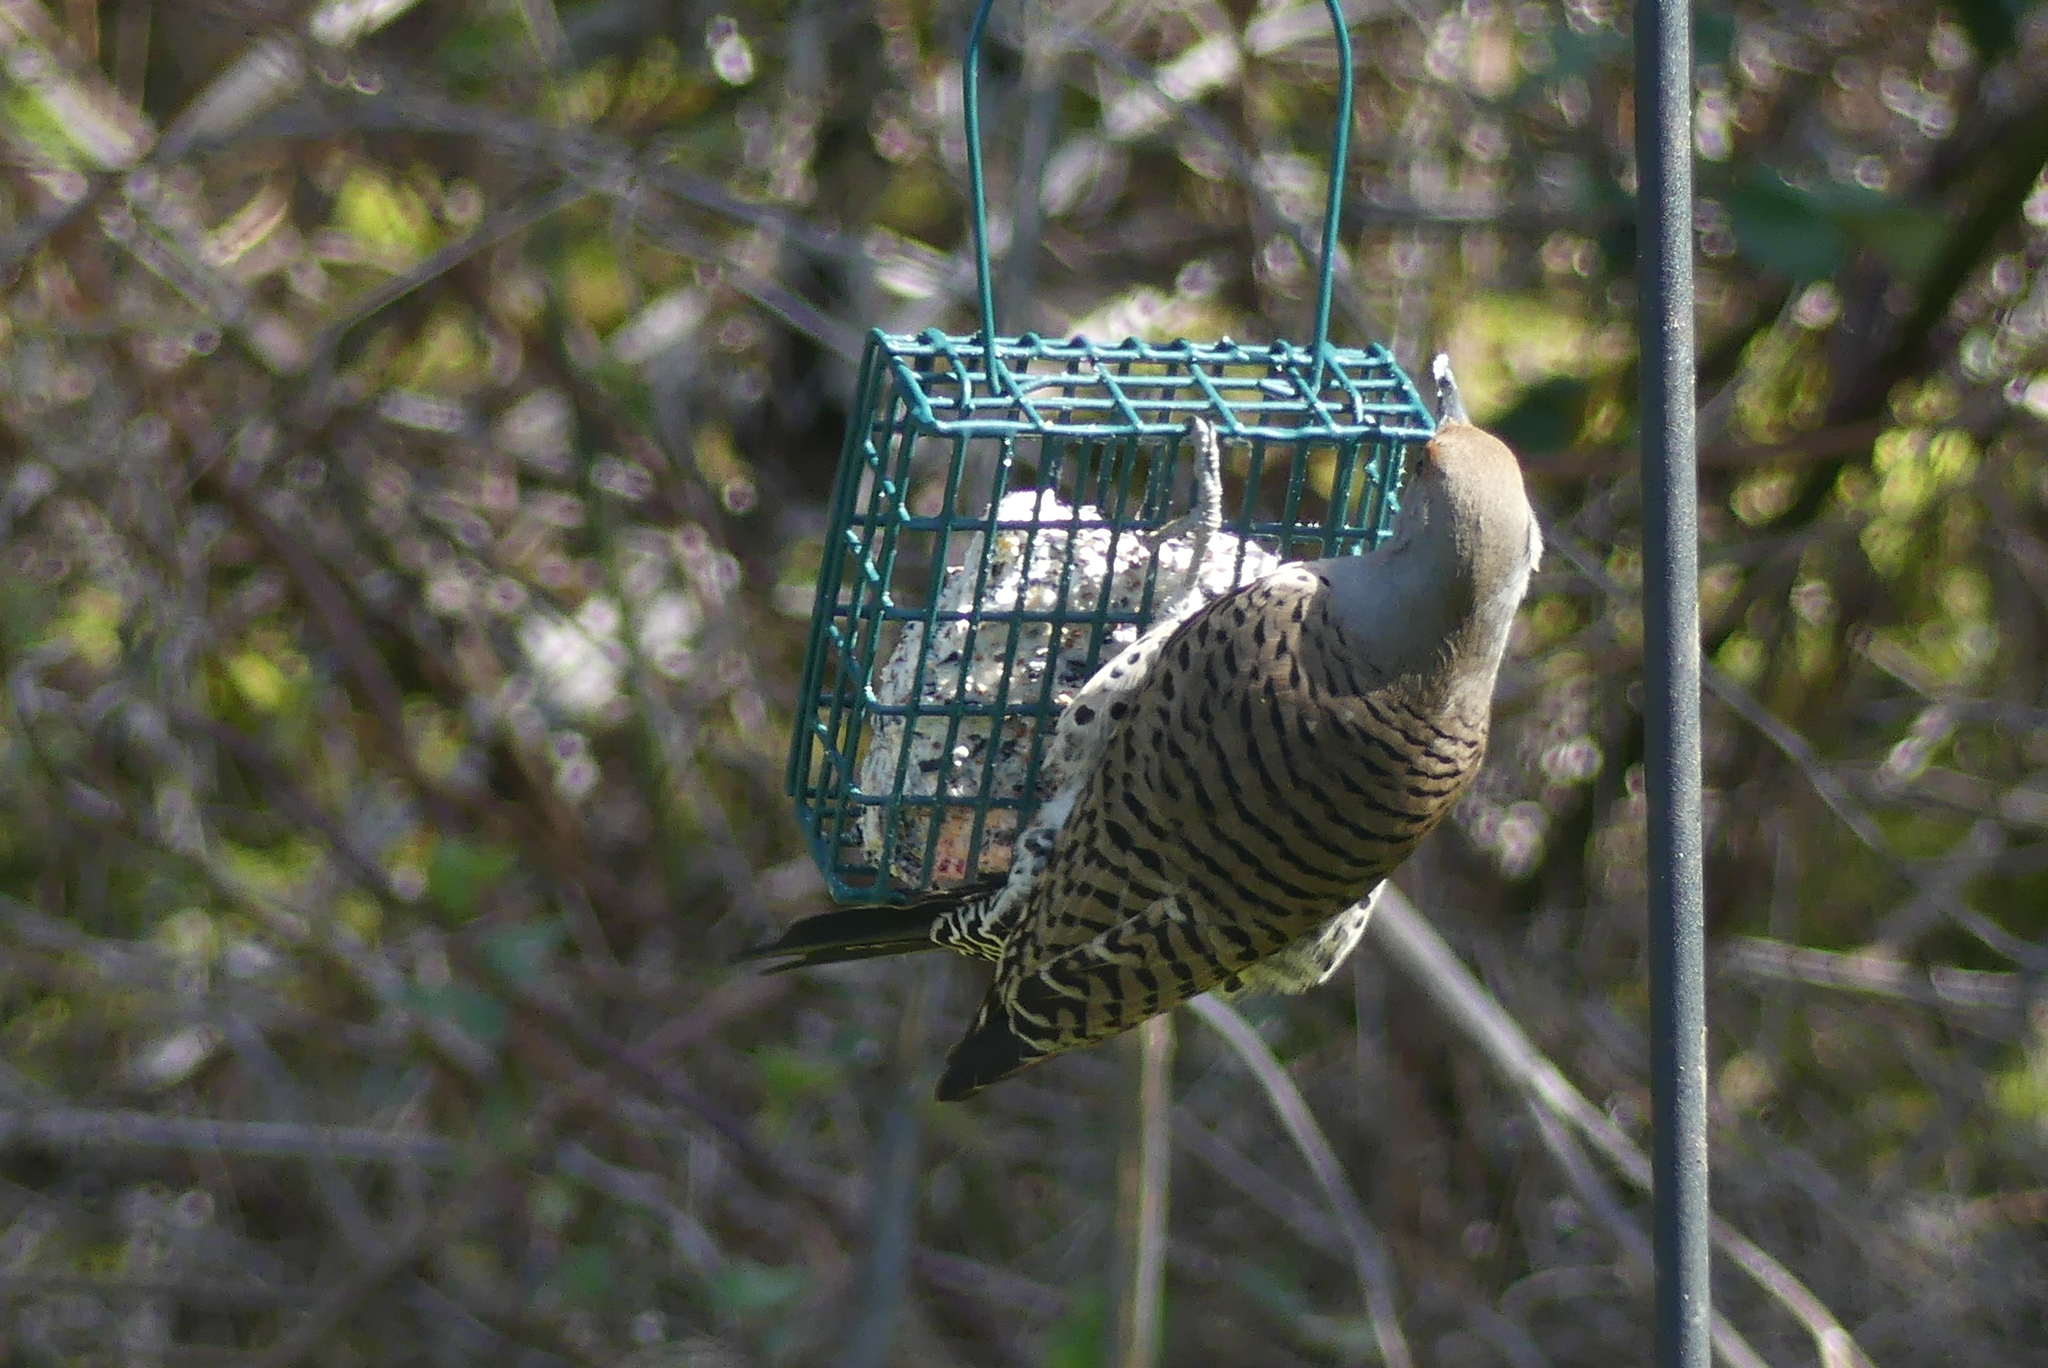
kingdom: Animalia
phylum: Chordata
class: Aves
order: Piciformes
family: Picidae
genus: Colaptes
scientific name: Colaptes auratus
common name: Northern flicker
